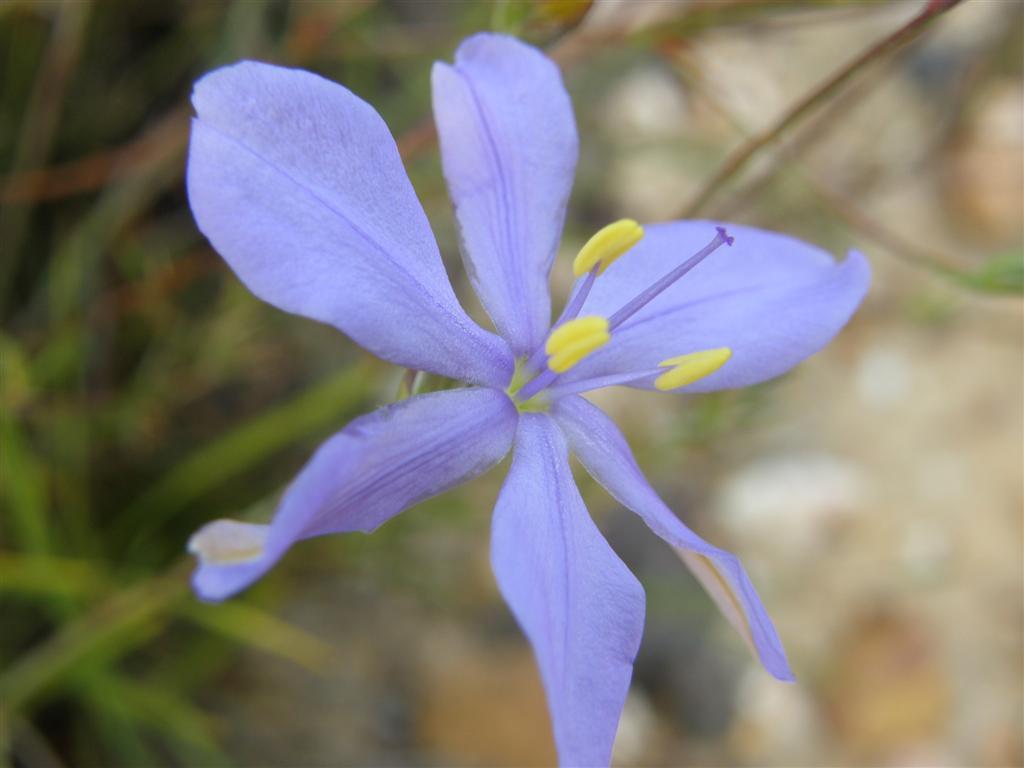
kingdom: Plantae
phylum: Tracheophyta
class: Liliopsida
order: Asparagales
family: Iridaceae
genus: Aristea
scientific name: Aristea dichotoma
